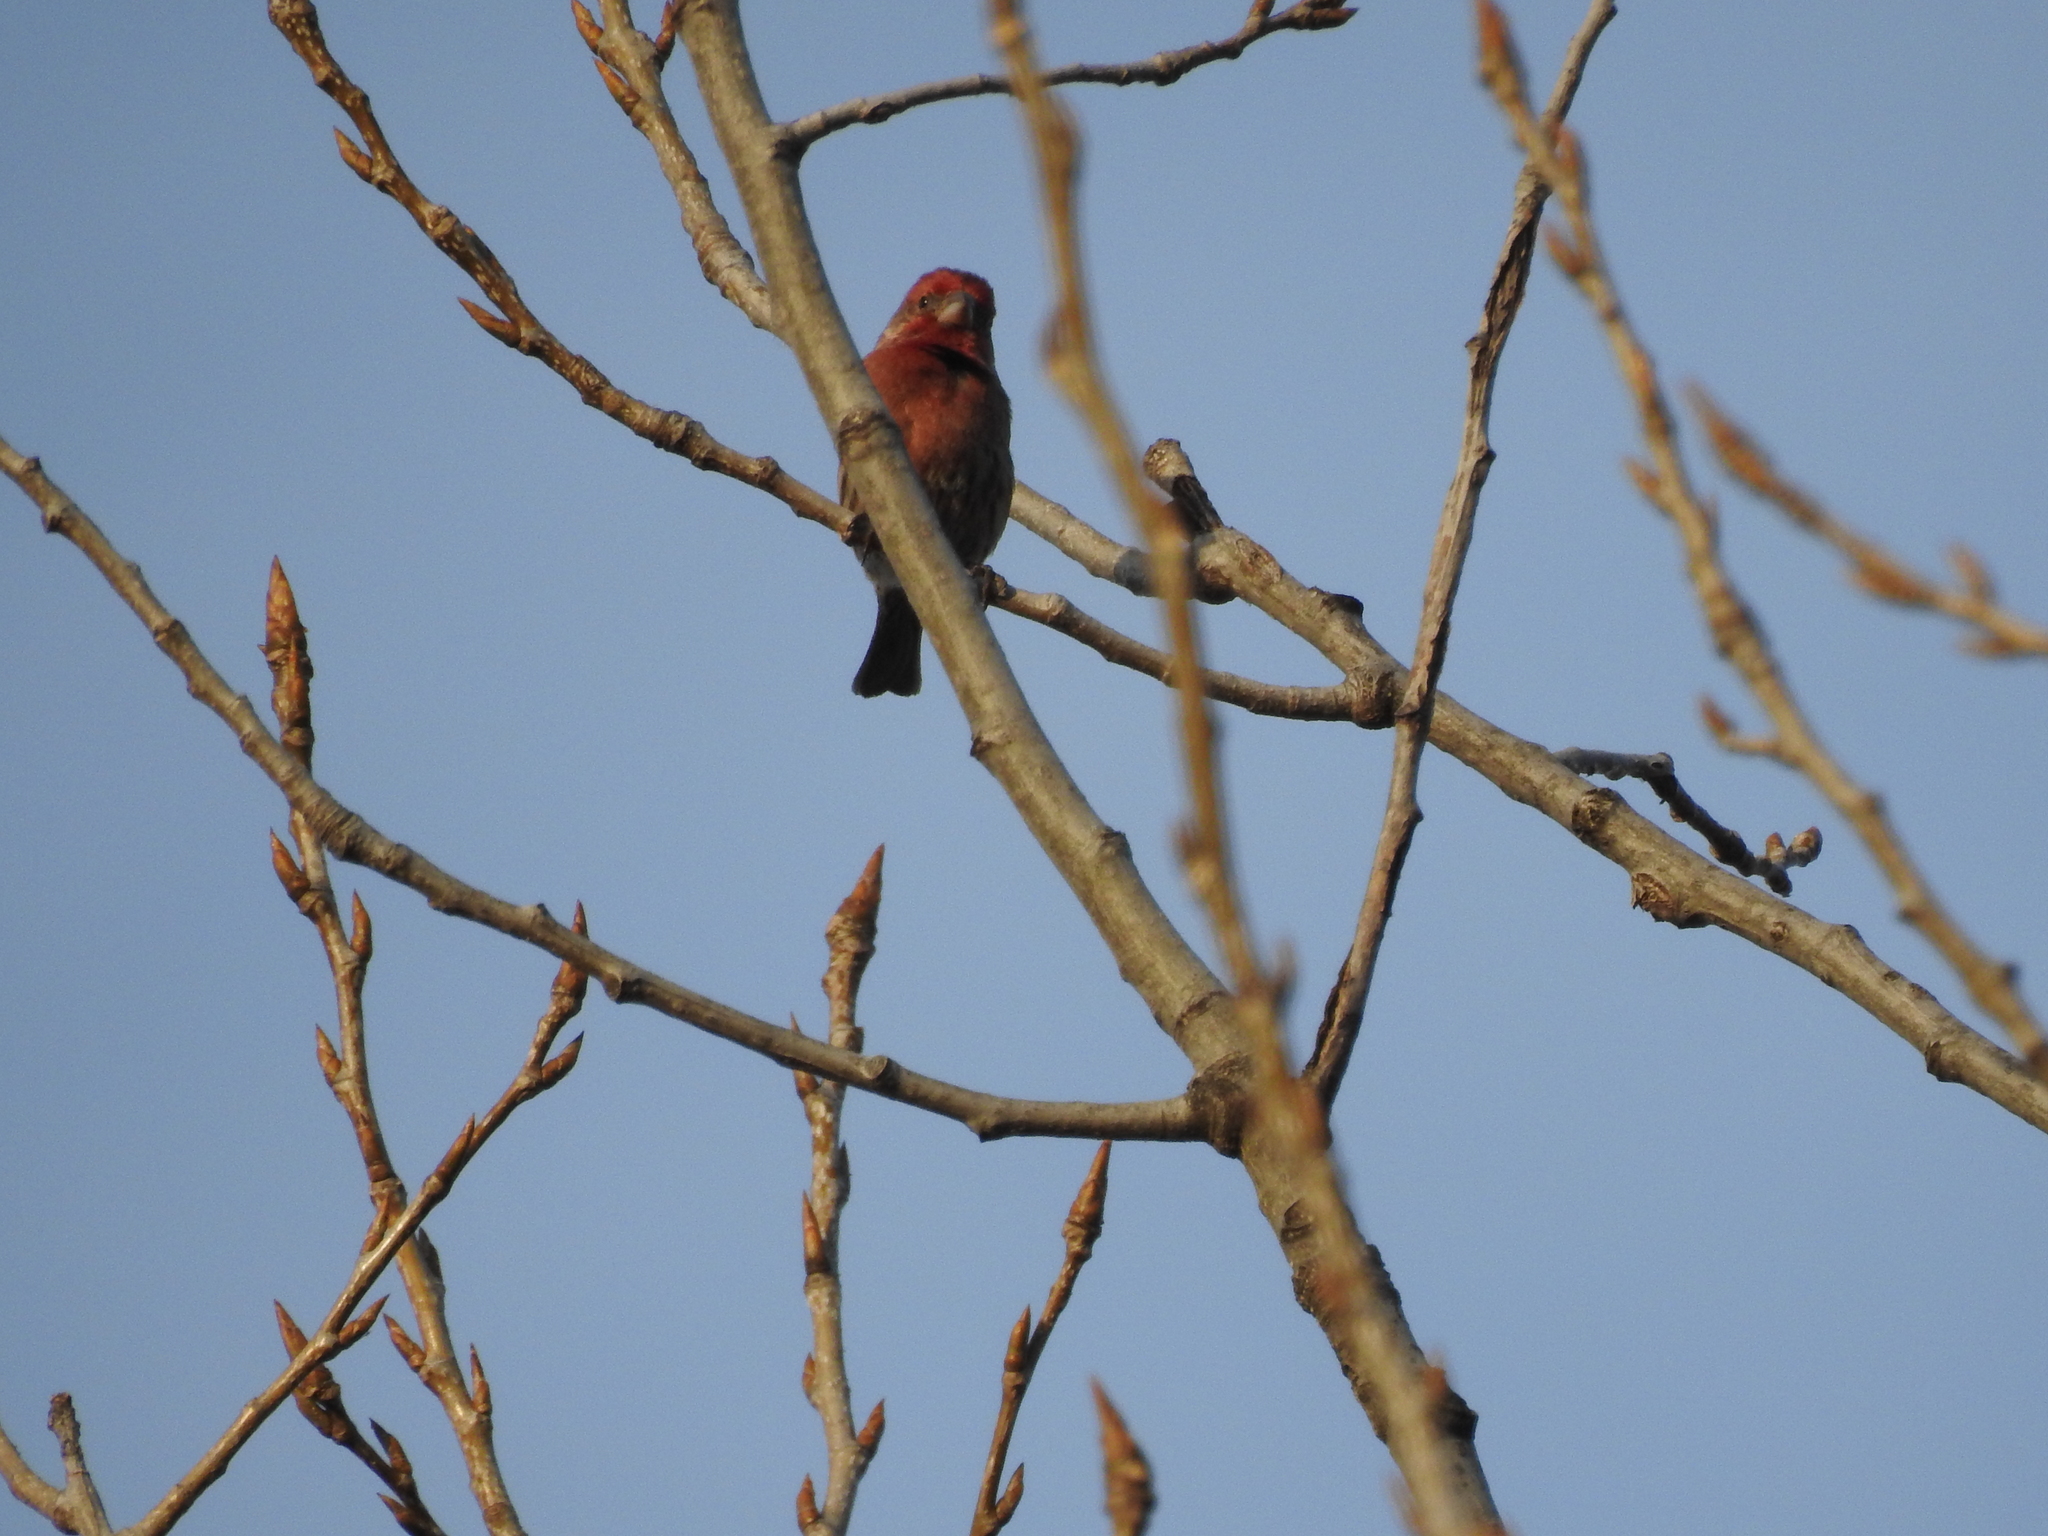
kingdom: Animalia
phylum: Chordata
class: Aves
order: Passeriformes
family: Fringillidae
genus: Haemorhous
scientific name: Haemorhous mexicanus
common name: House finch
